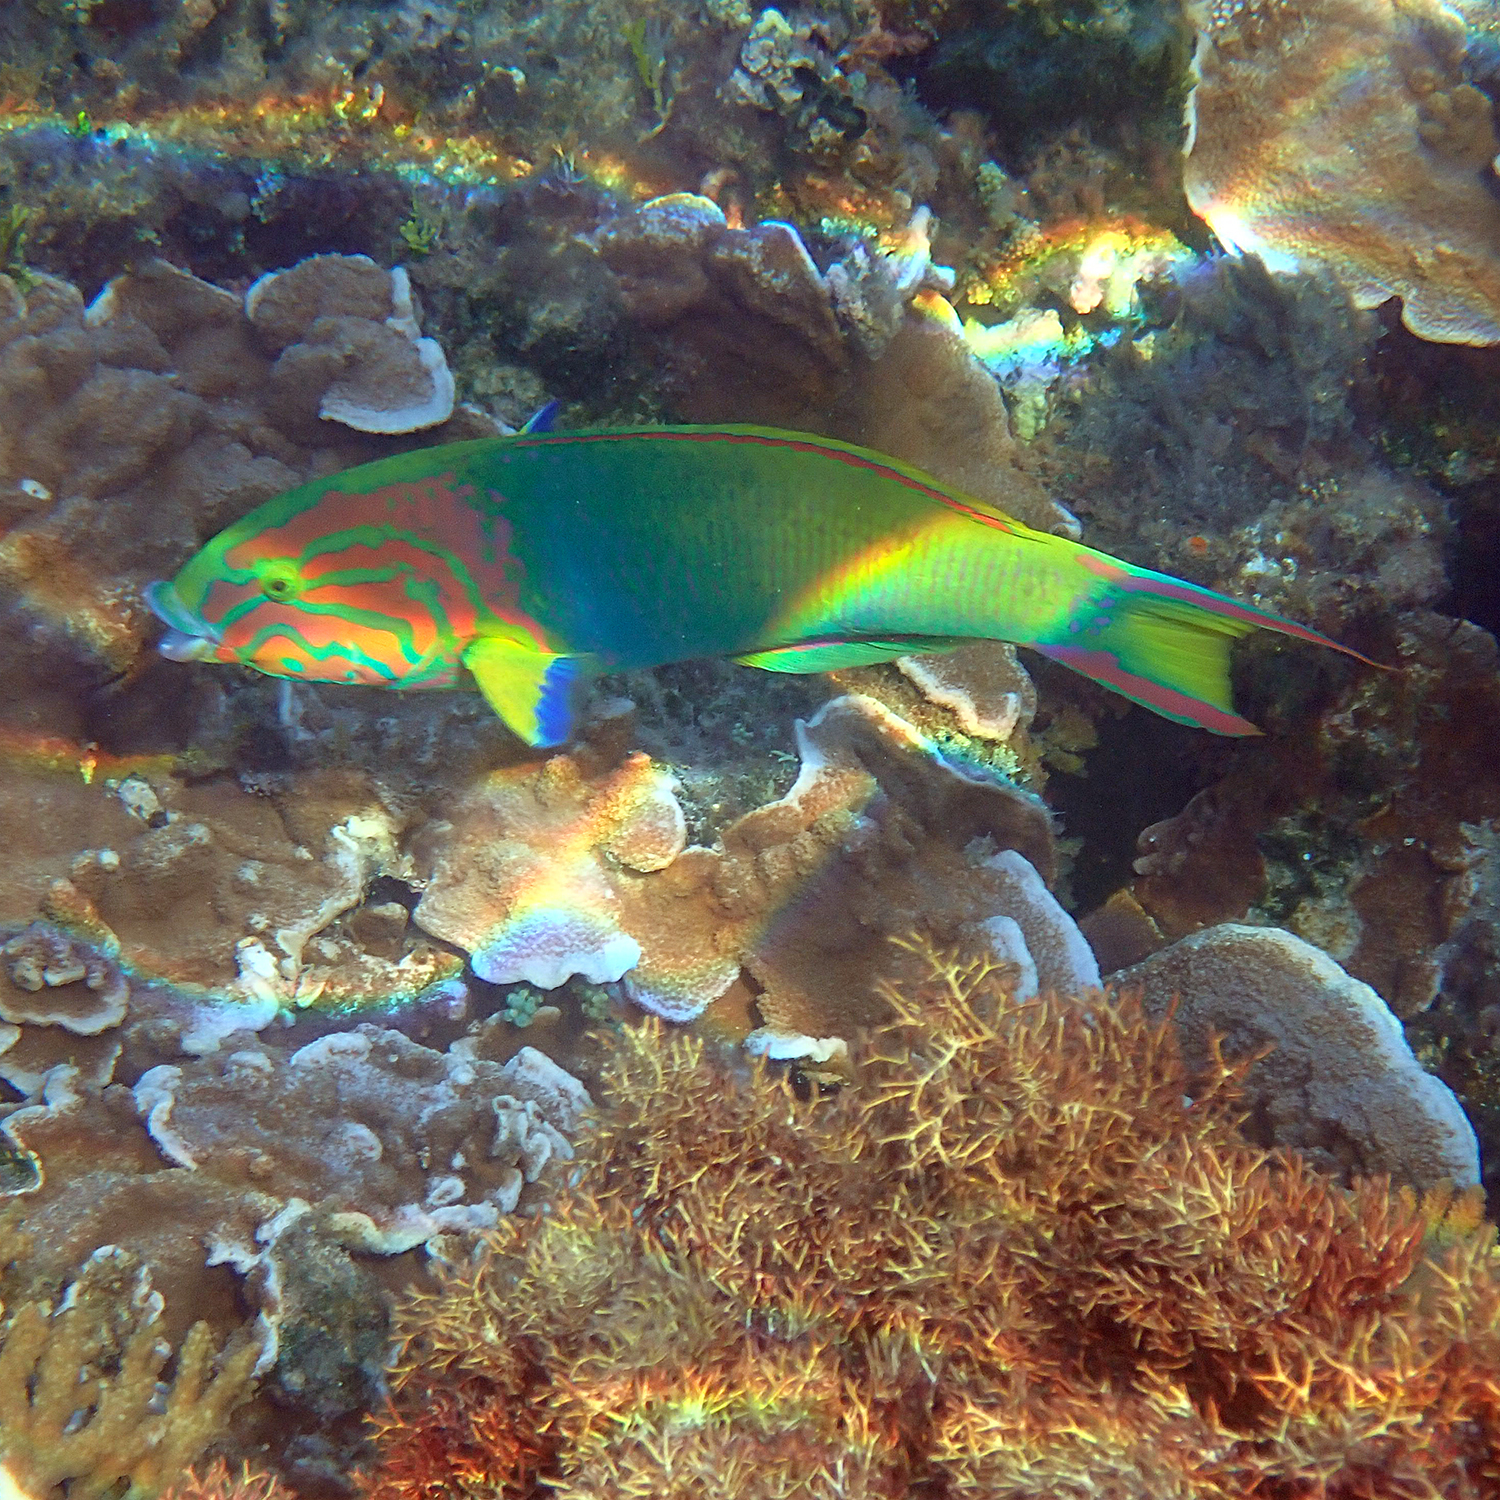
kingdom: Animalia
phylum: Chordata
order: Perciformes
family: Labridae
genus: Thalassoma
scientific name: Thalassoma lutescens
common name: Green moon wrasse
